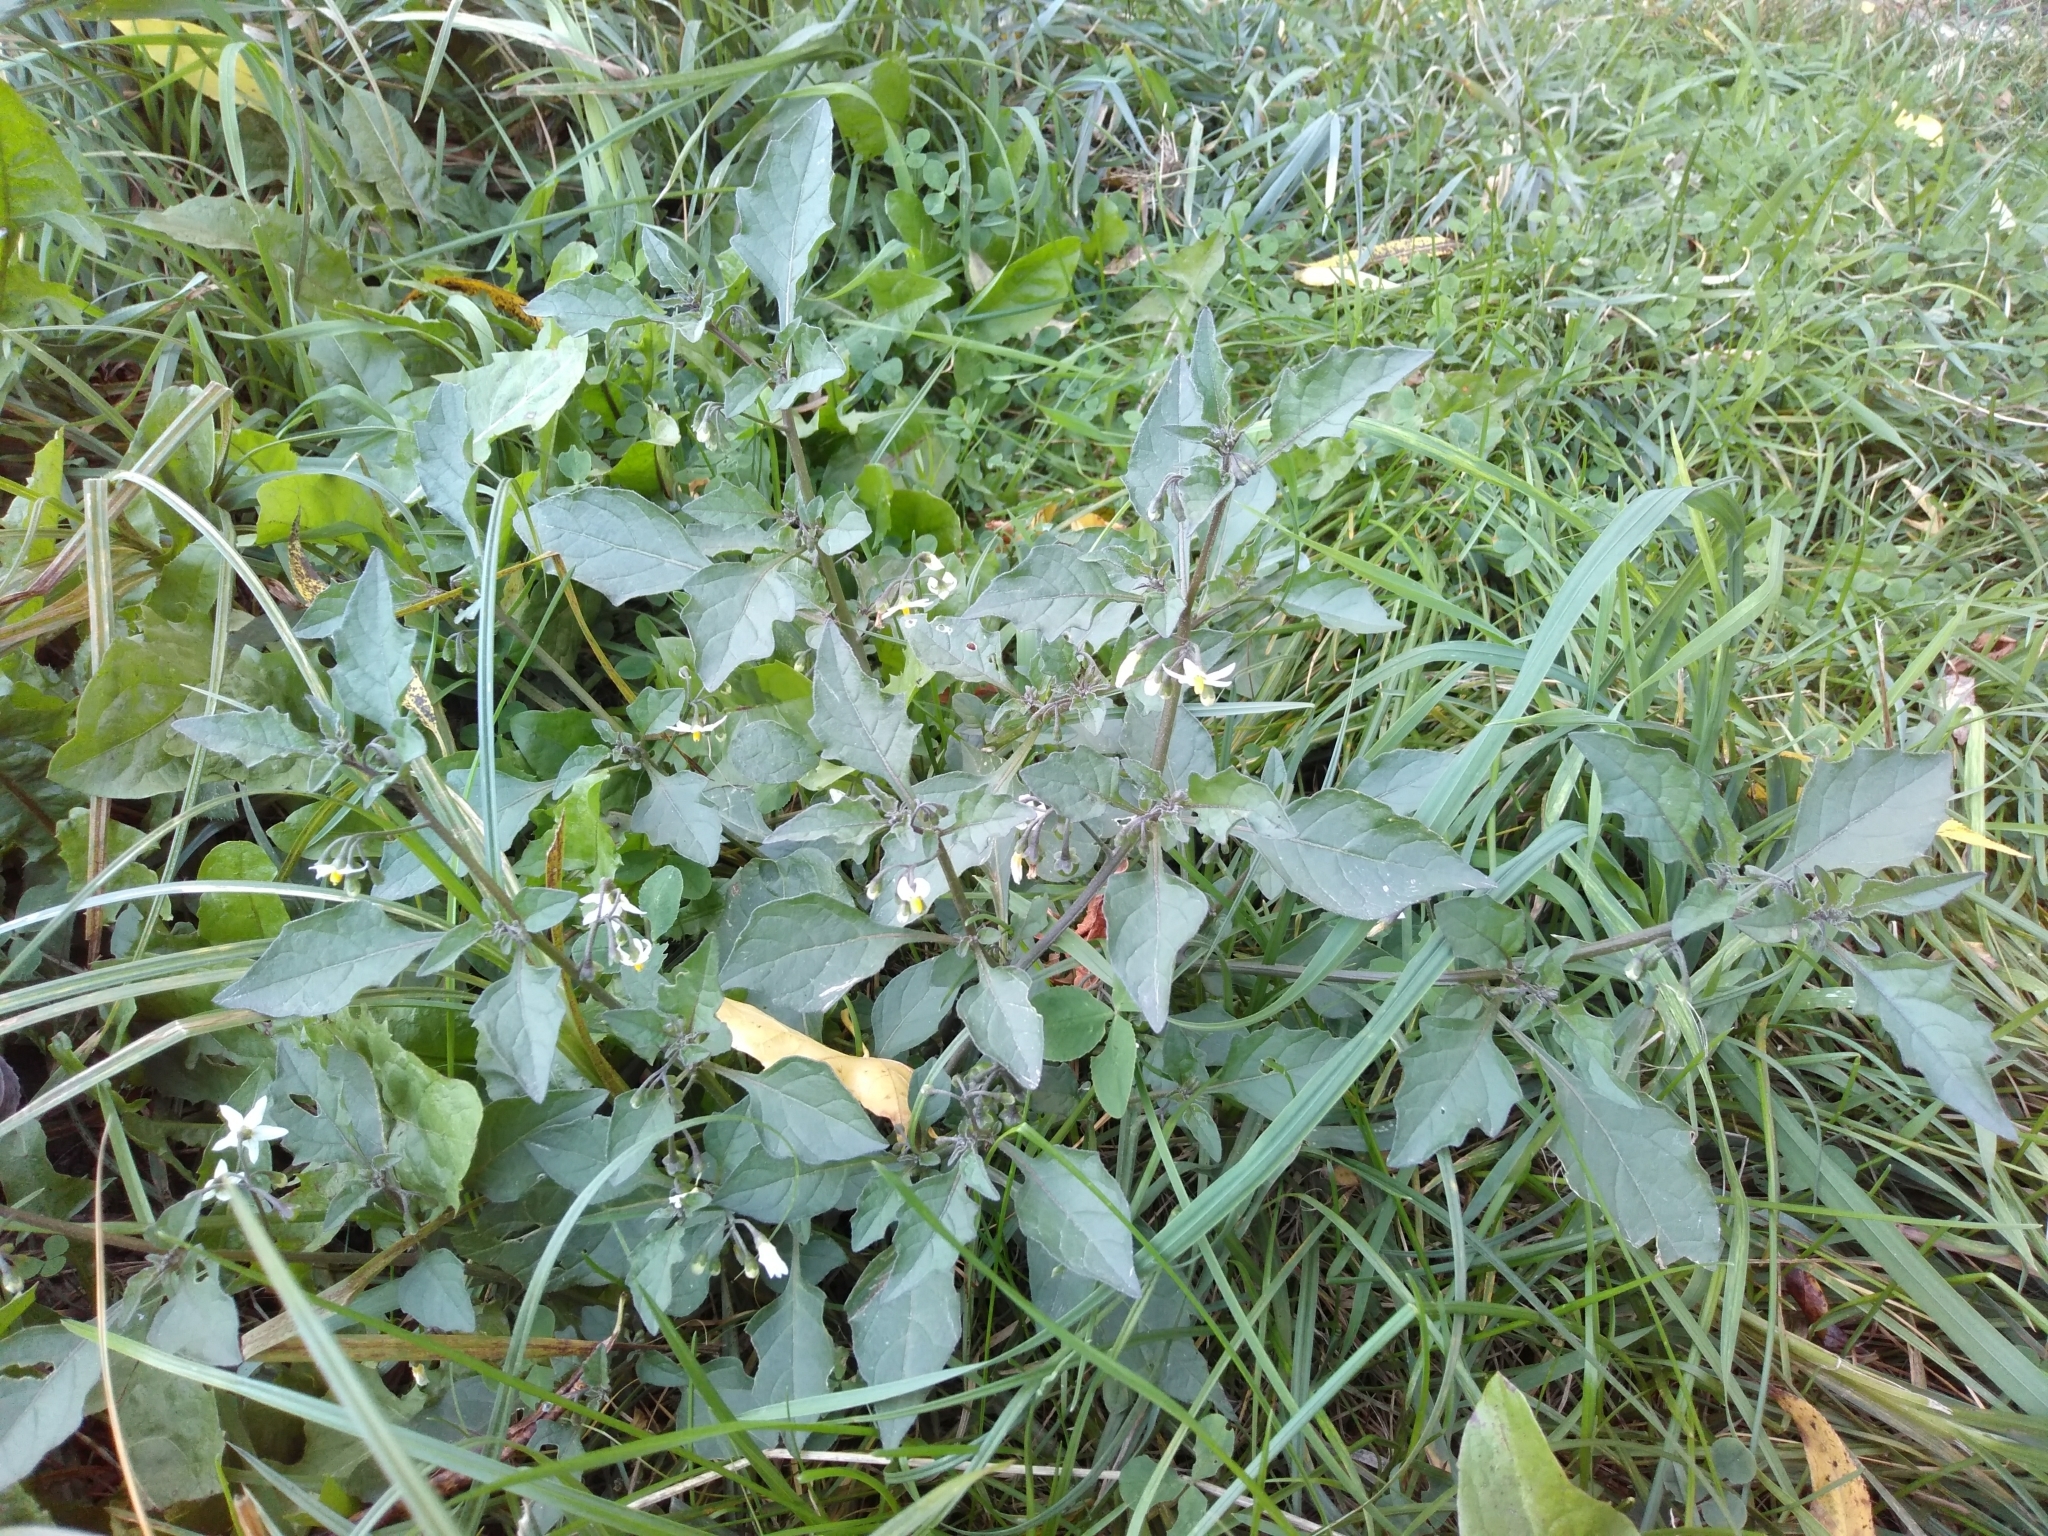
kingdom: Plantae
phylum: Tracheophyta
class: Magnoliopsida
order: Solanales
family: Solanaceae
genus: Solanum
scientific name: Solanum nigrum
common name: Black nightshade
